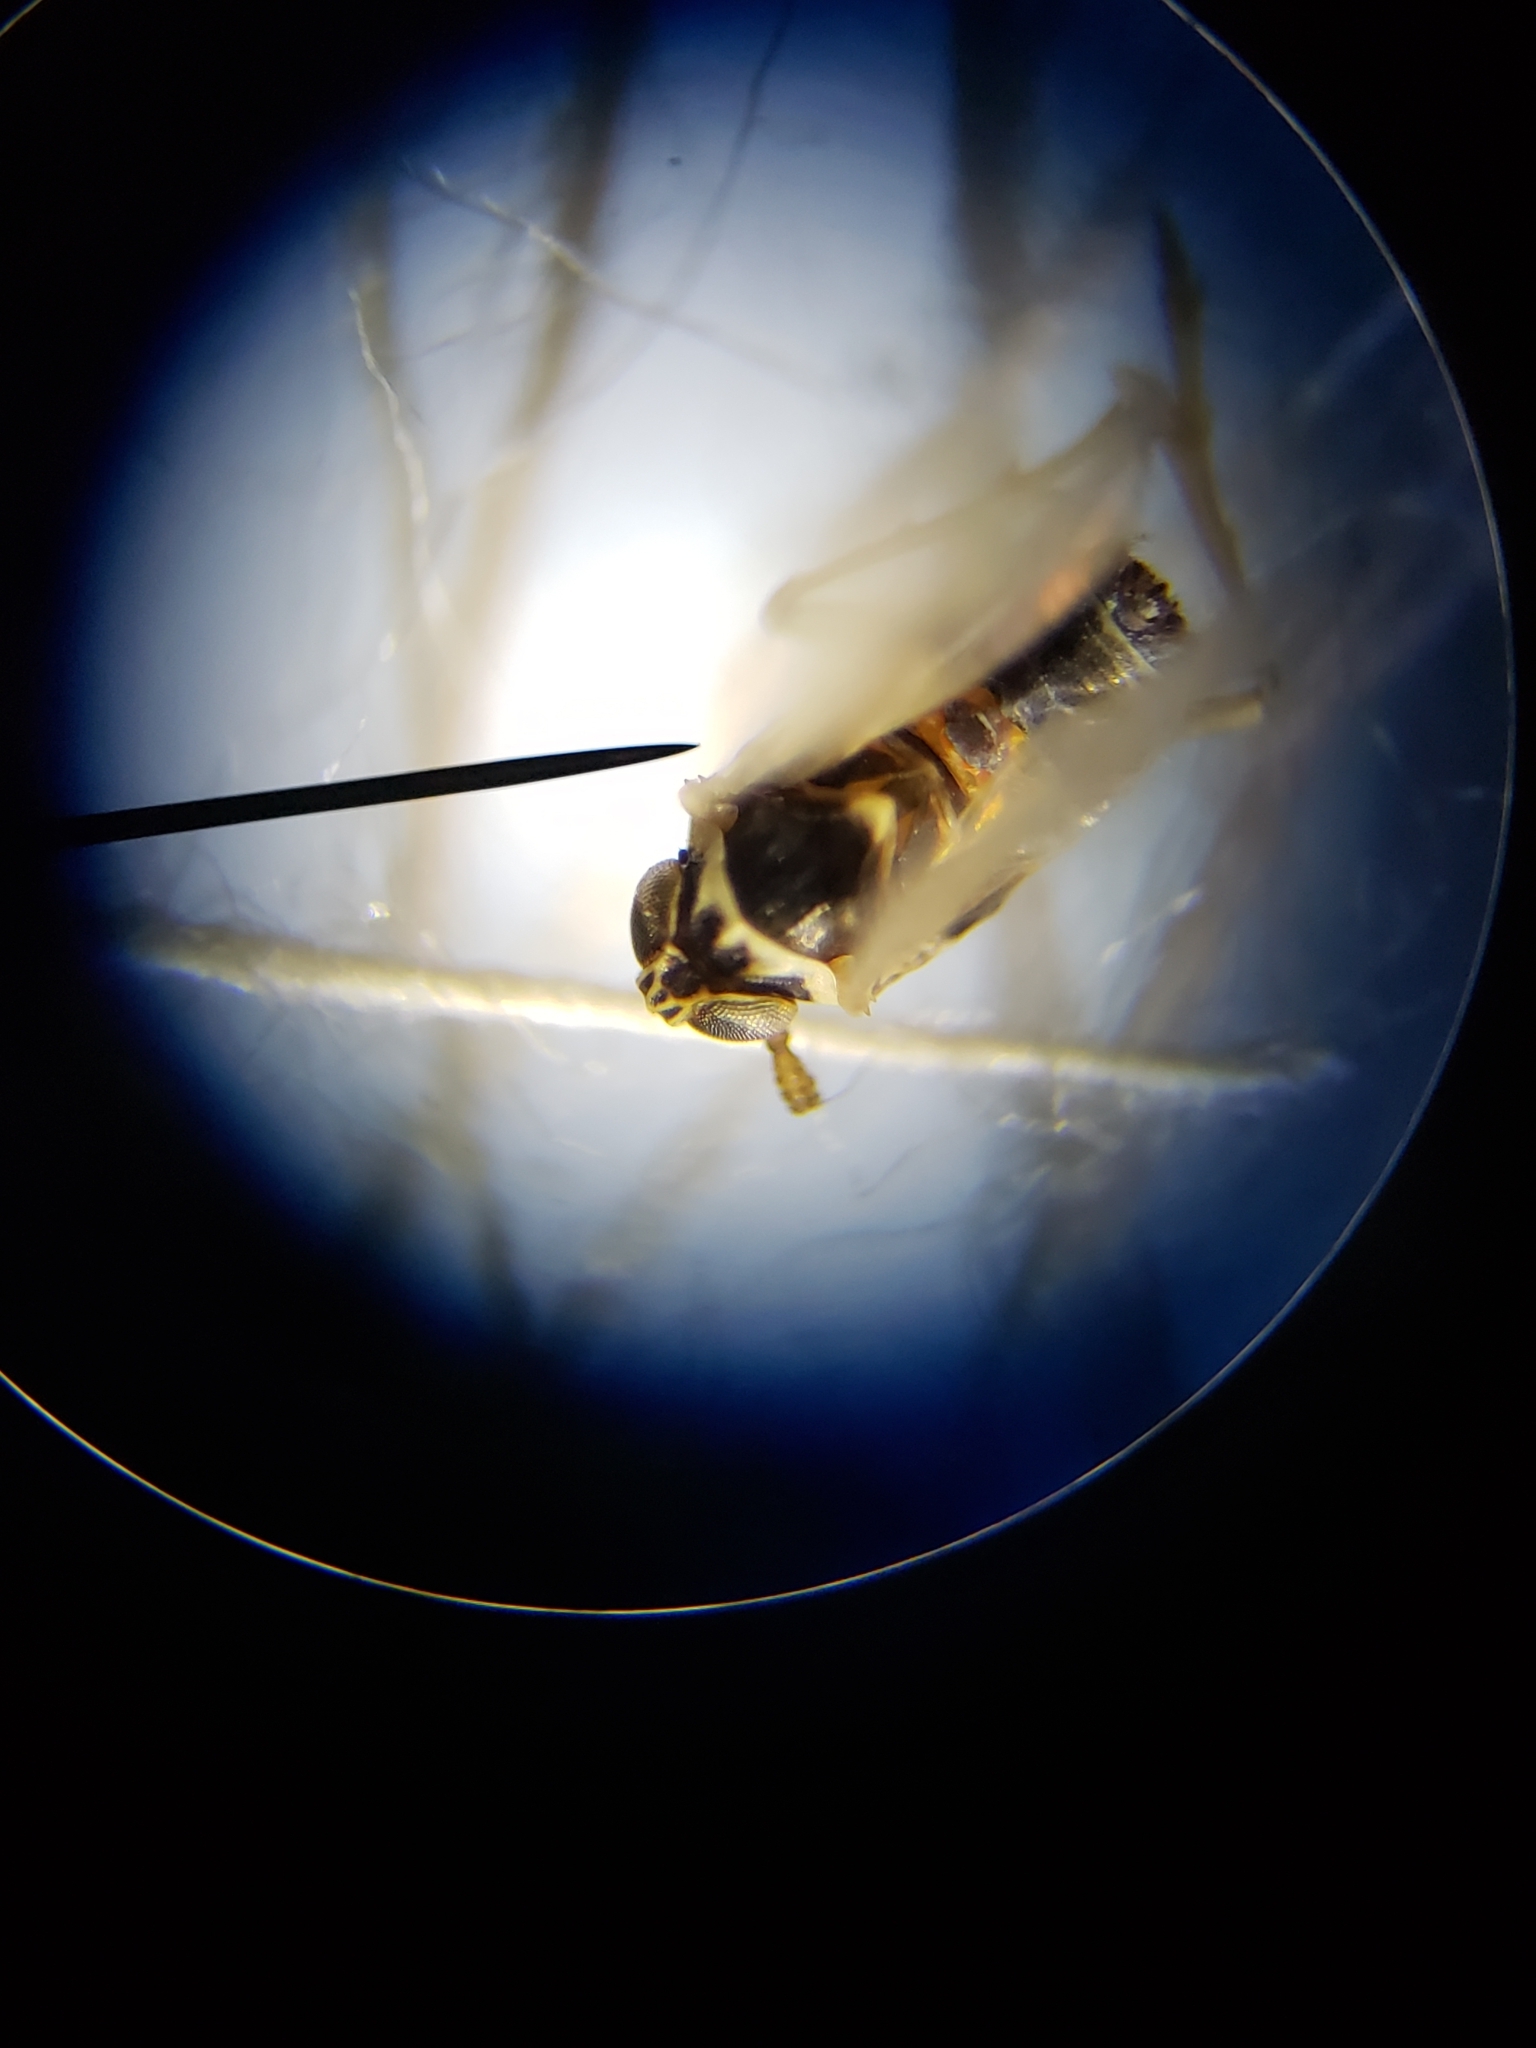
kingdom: Animalia
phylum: Arthropoda
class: Insecta
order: Hemiptera
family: Delphacidae
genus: Chionomus
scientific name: Chionomus
